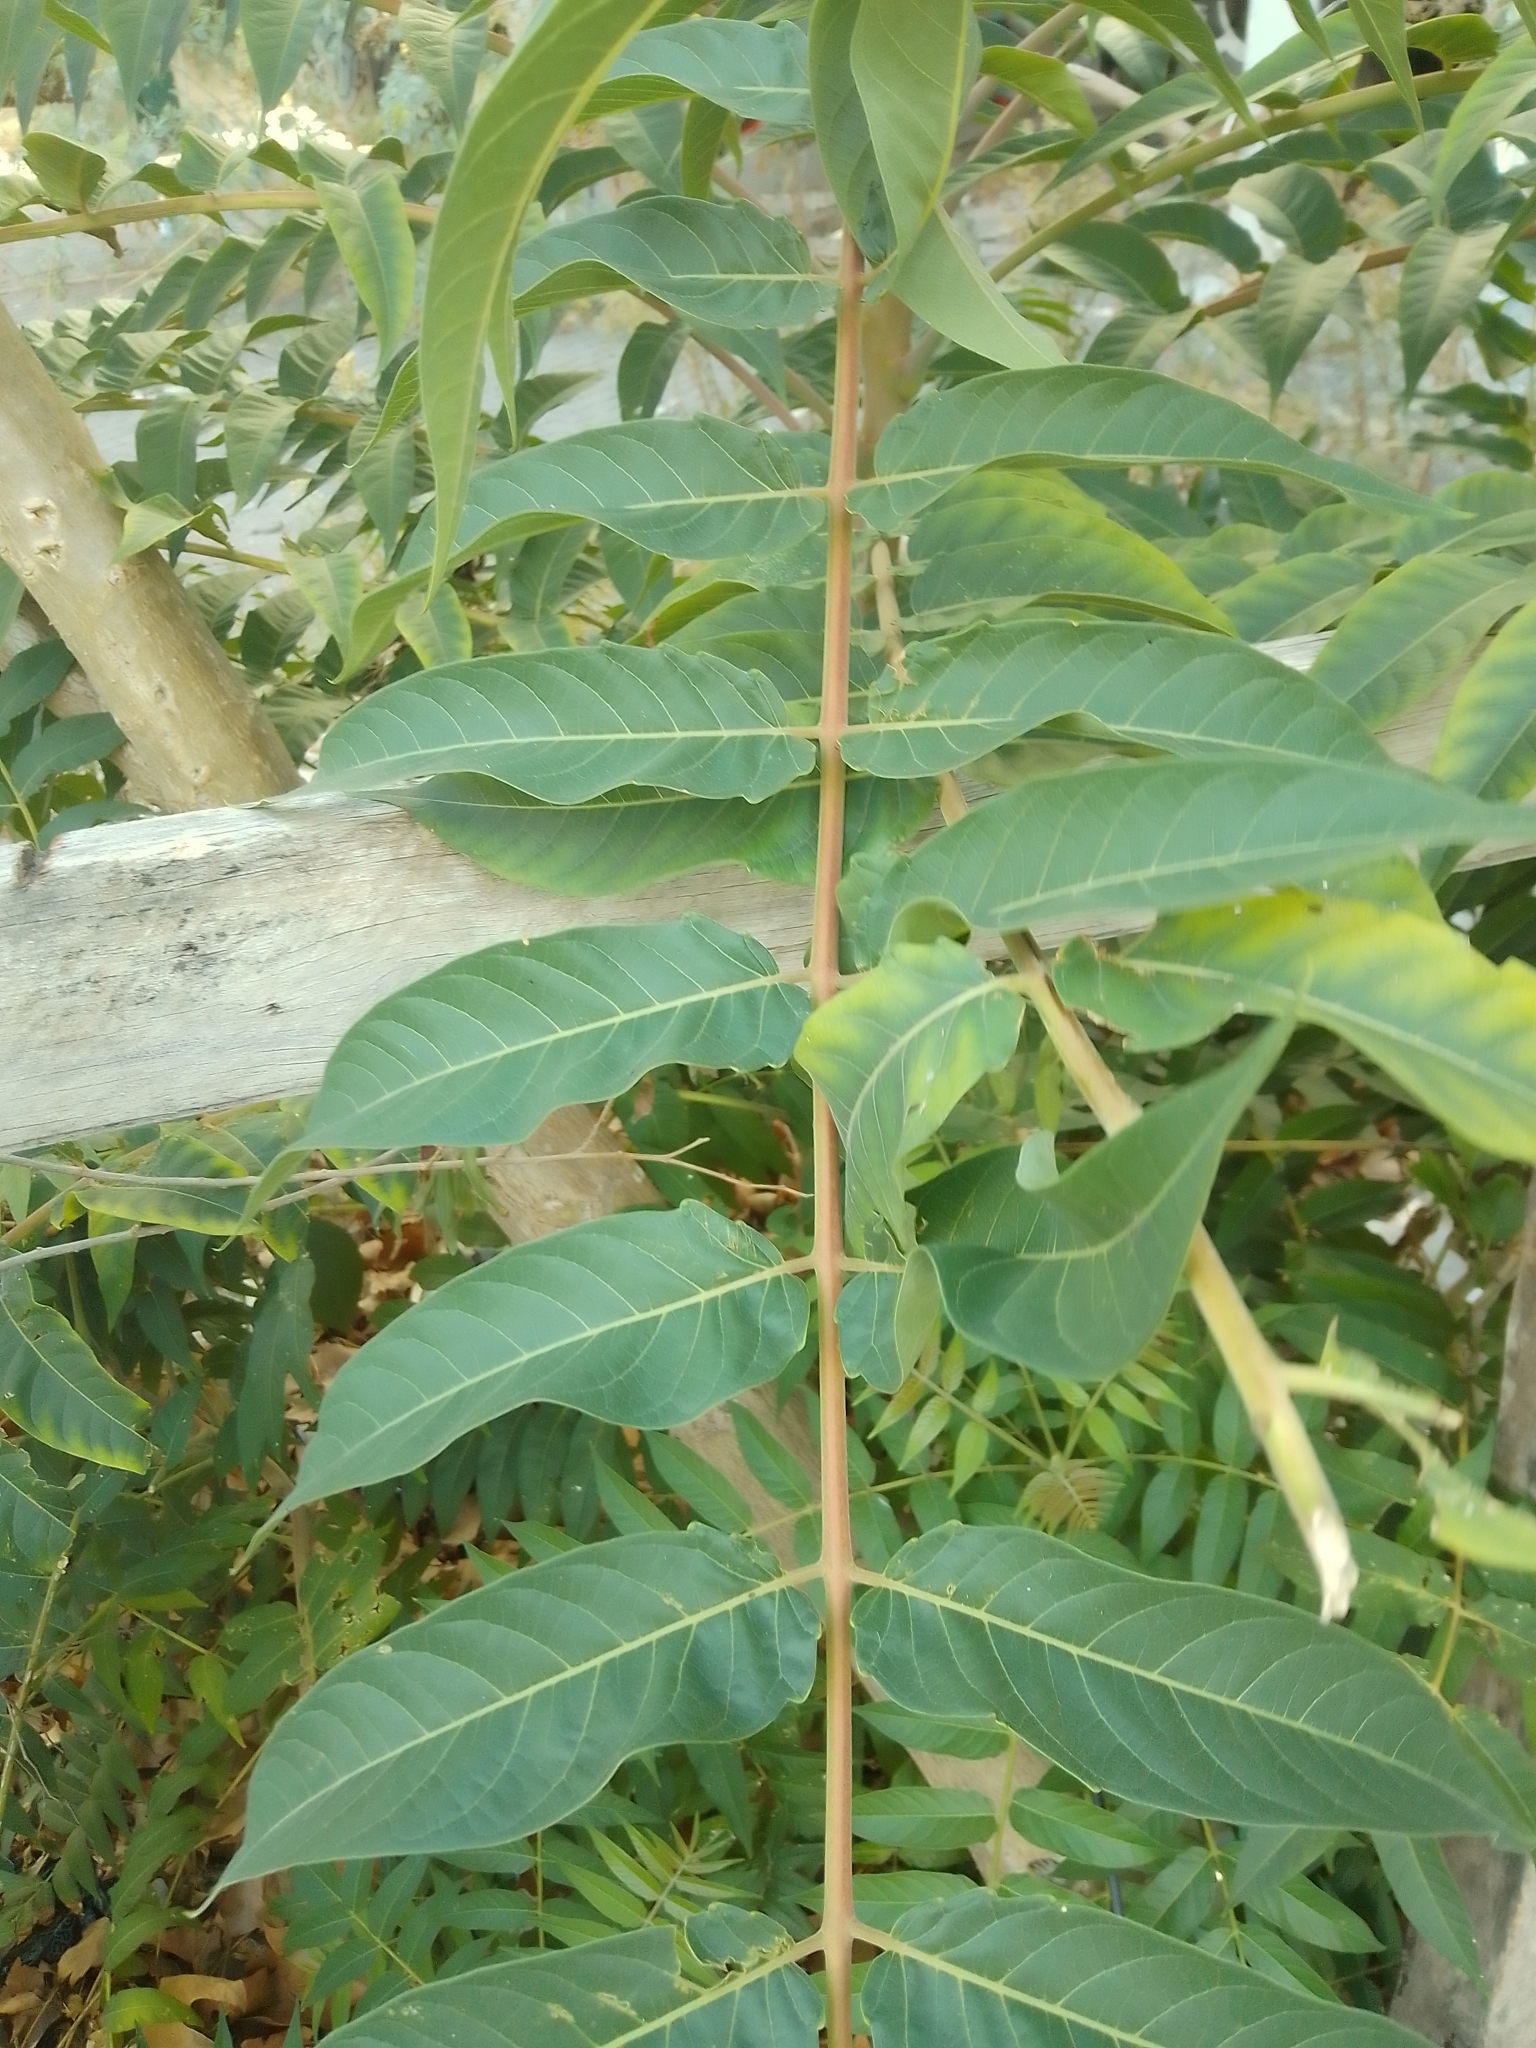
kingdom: Plantae
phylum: Tracheophyta
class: Magnoliopsida
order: Sapindales
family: Simaroubaceae
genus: Ailanthus
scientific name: Ailanthus altissima
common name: Tree-of-heaven
